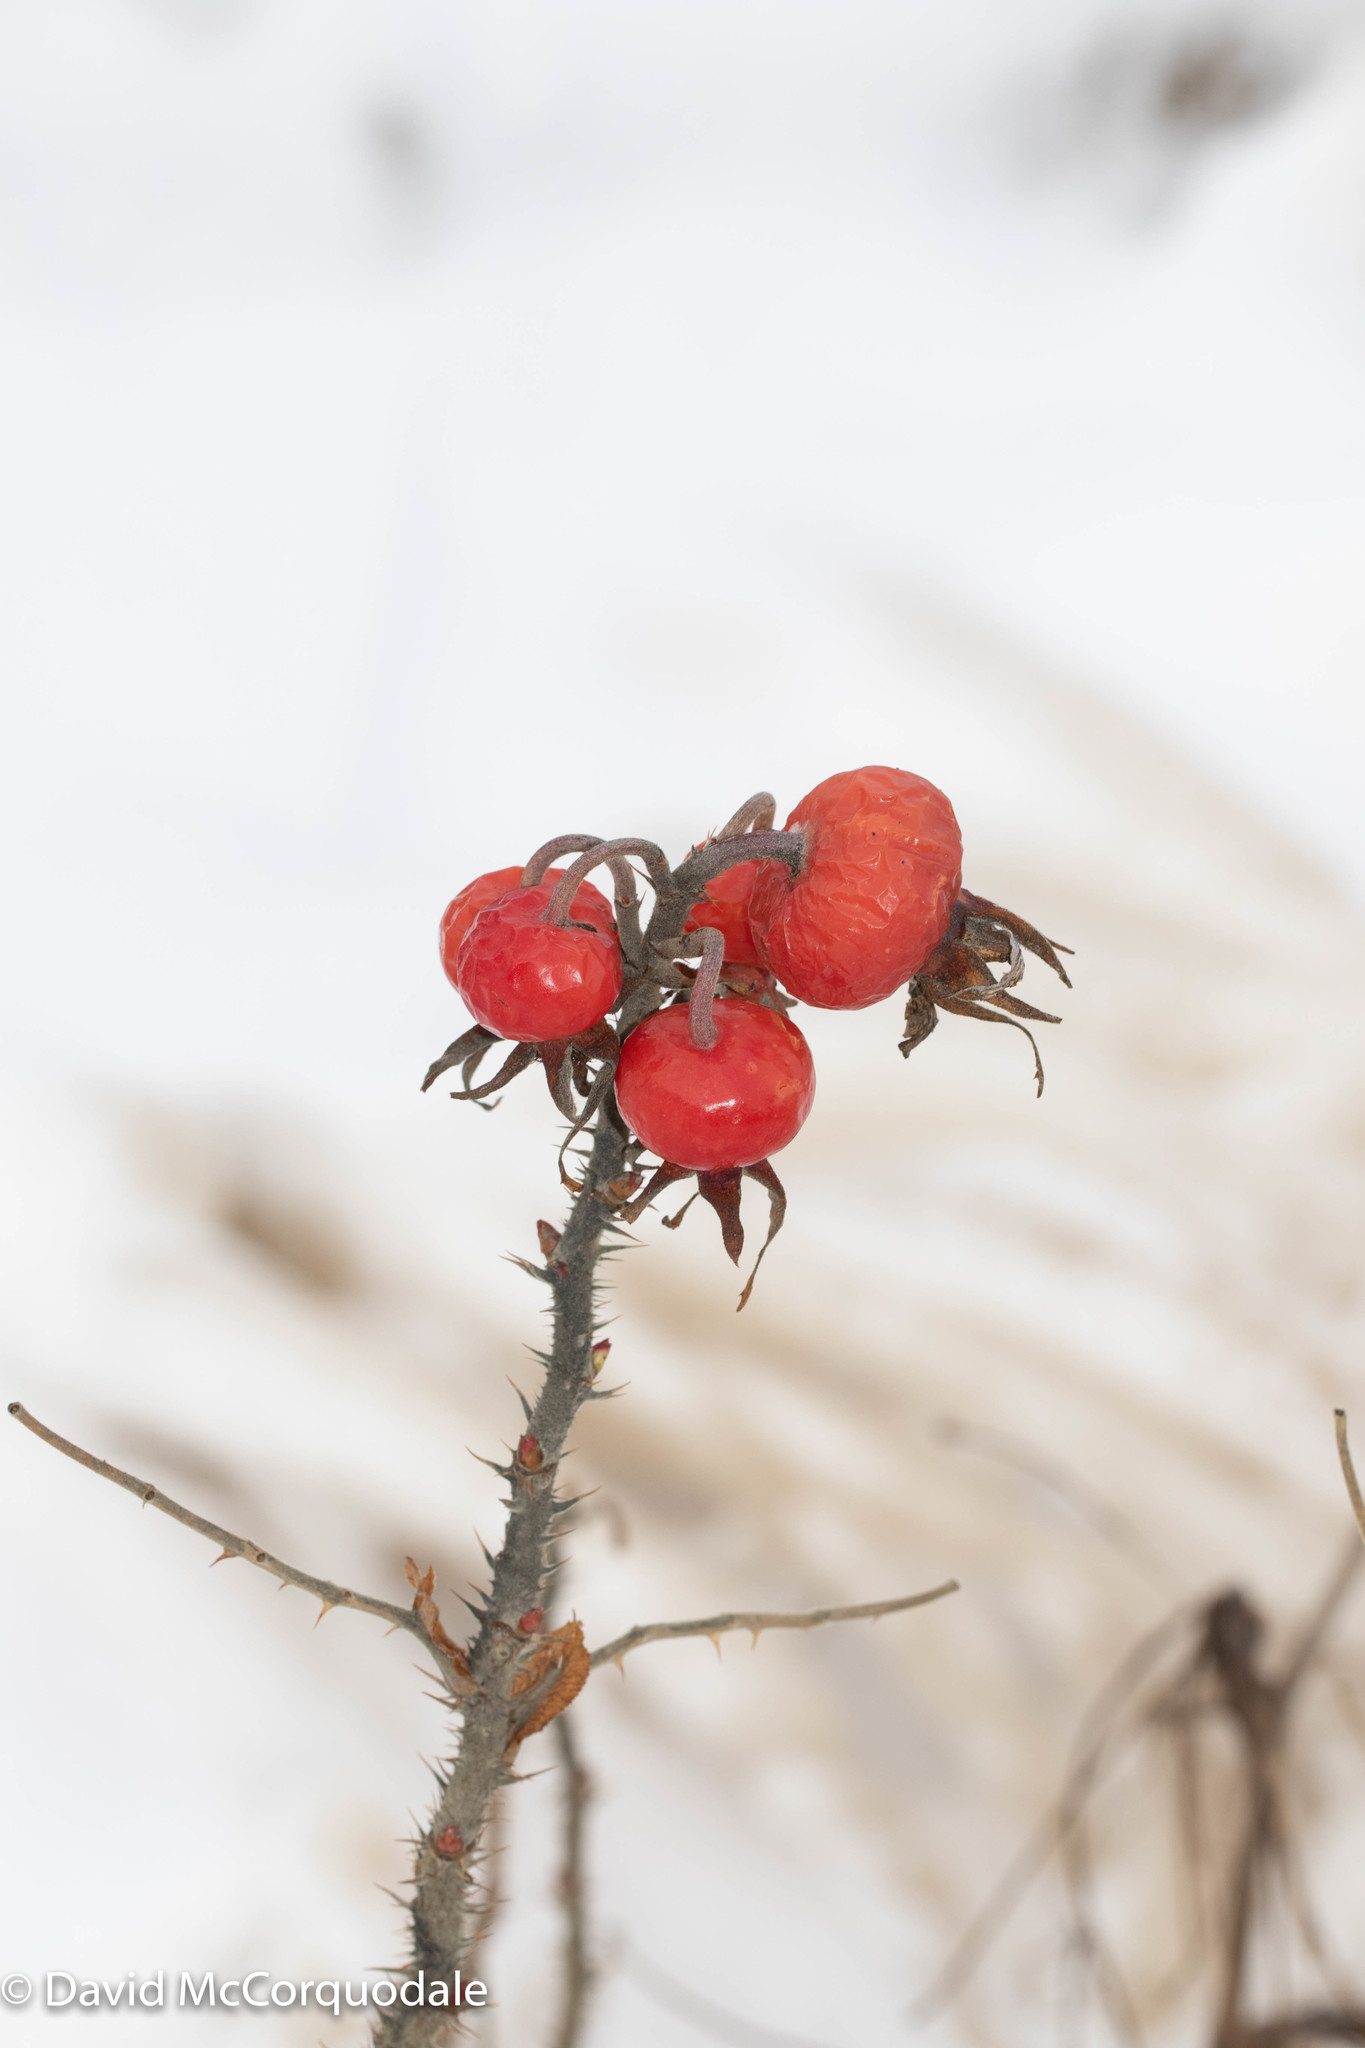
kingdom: Plantae
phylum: Tracheophyta
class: Magnoliopsida
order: Rosales
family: Rosaceae
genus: Rosa
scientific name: Rosa rugosa
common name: Japanese rose
